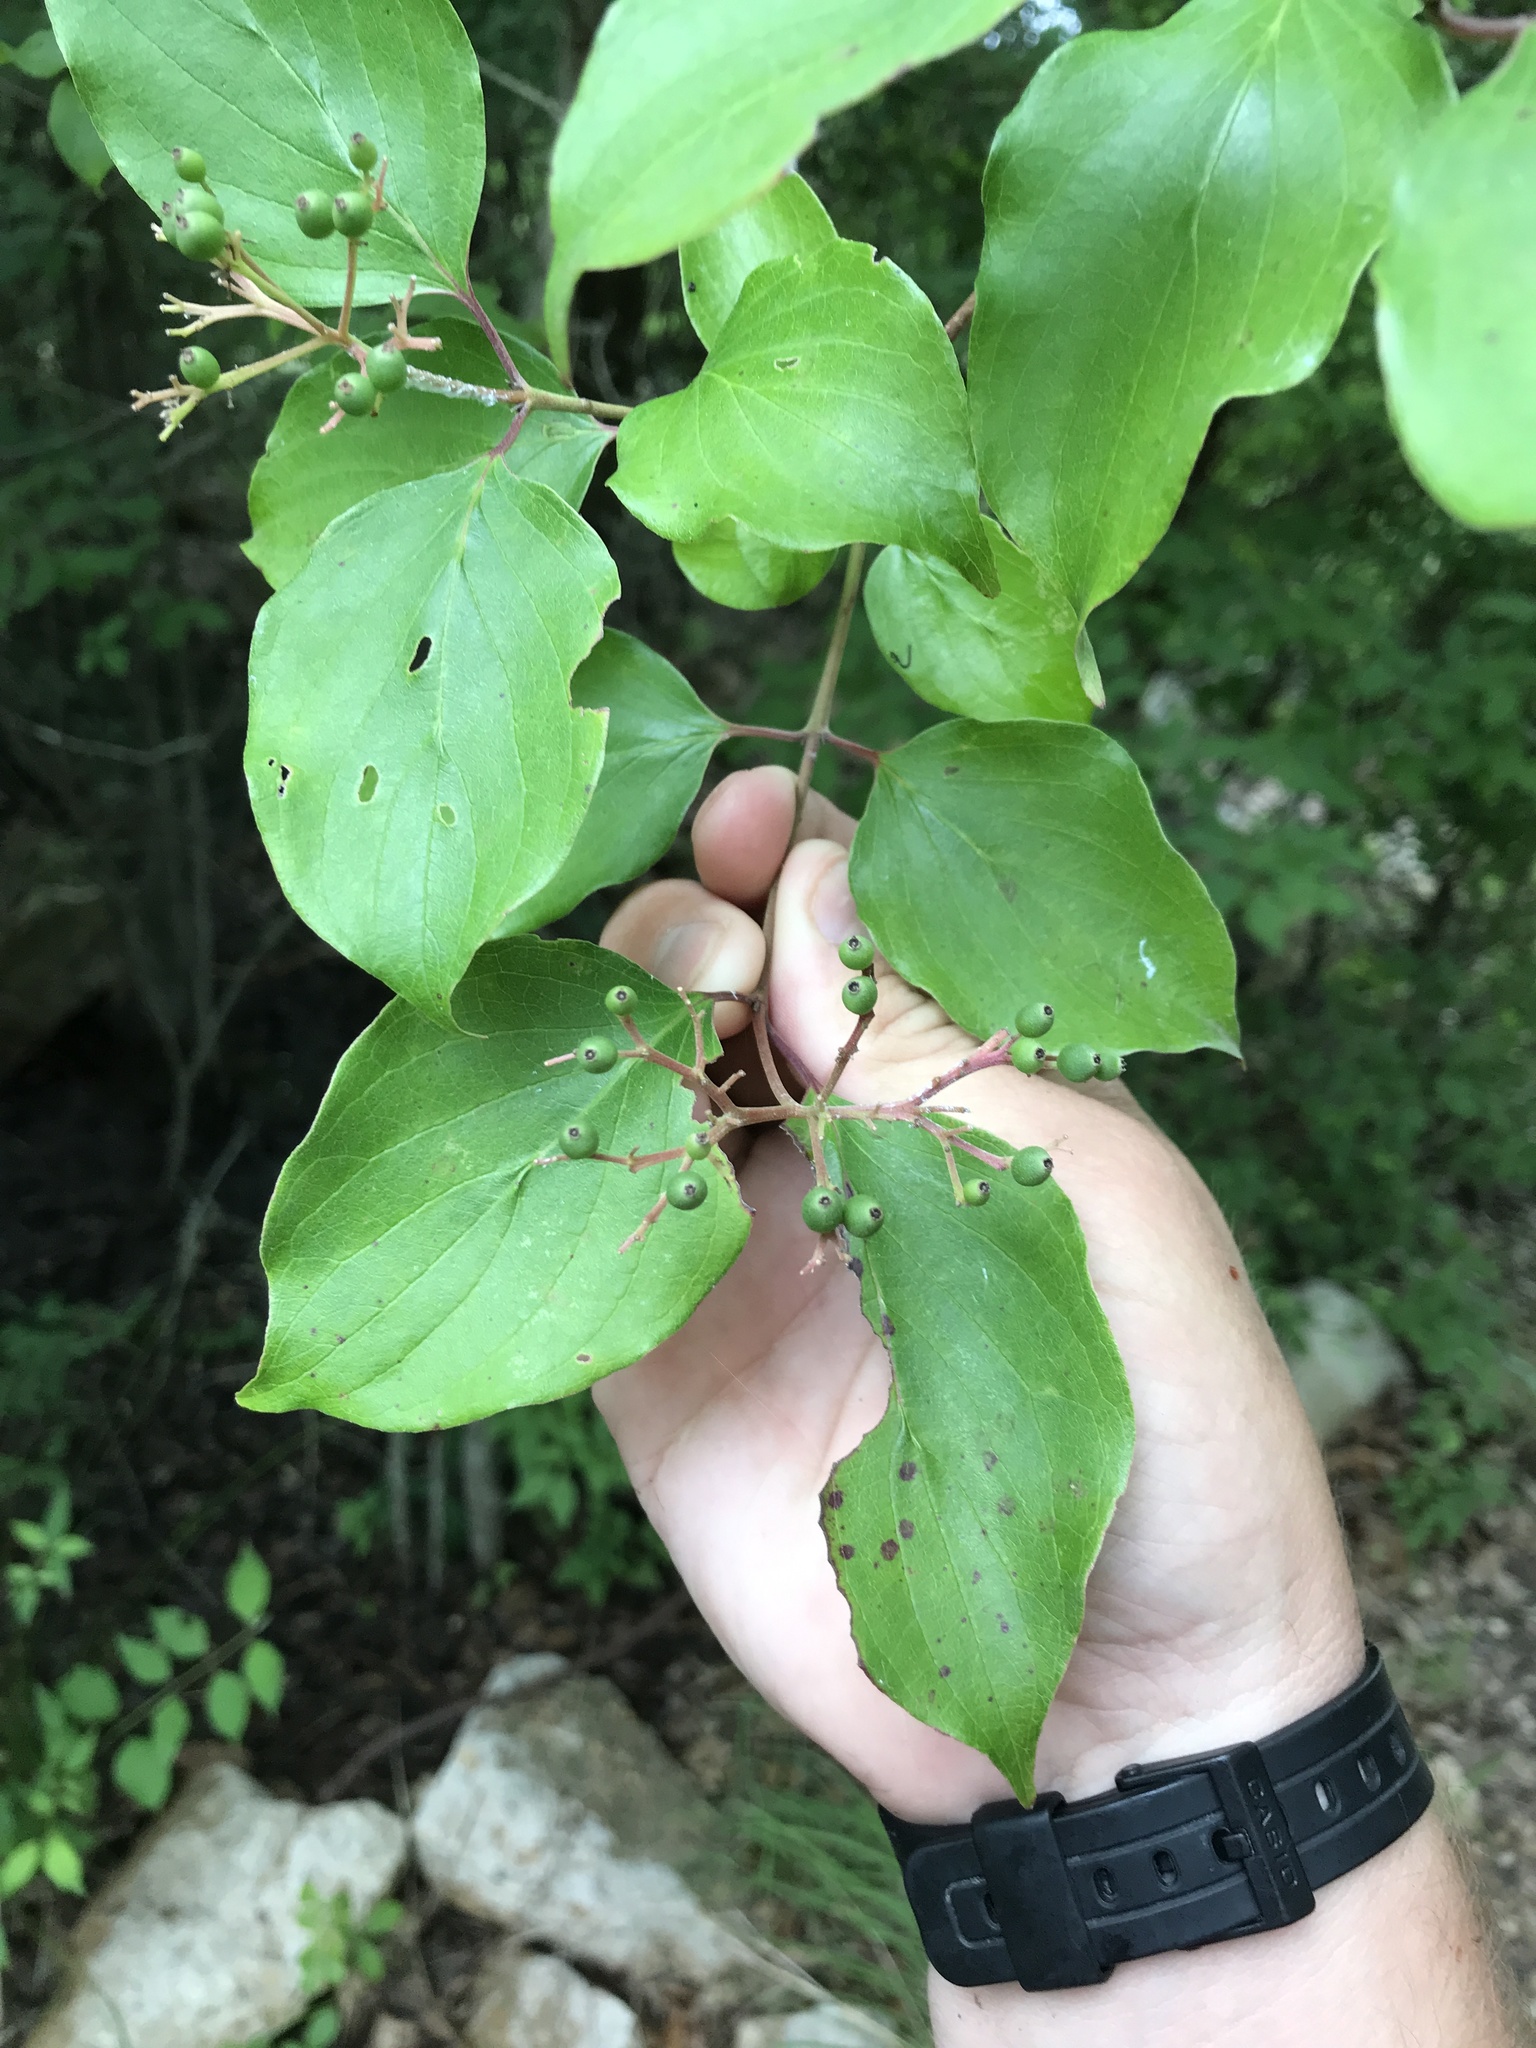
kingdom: Plantae
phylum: Tracheophyta
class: Magnoliopsida
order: Cornales
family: Cornaceae
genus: Cornus
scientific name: Cornus drummondii
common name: Rough-leaf dogwood
